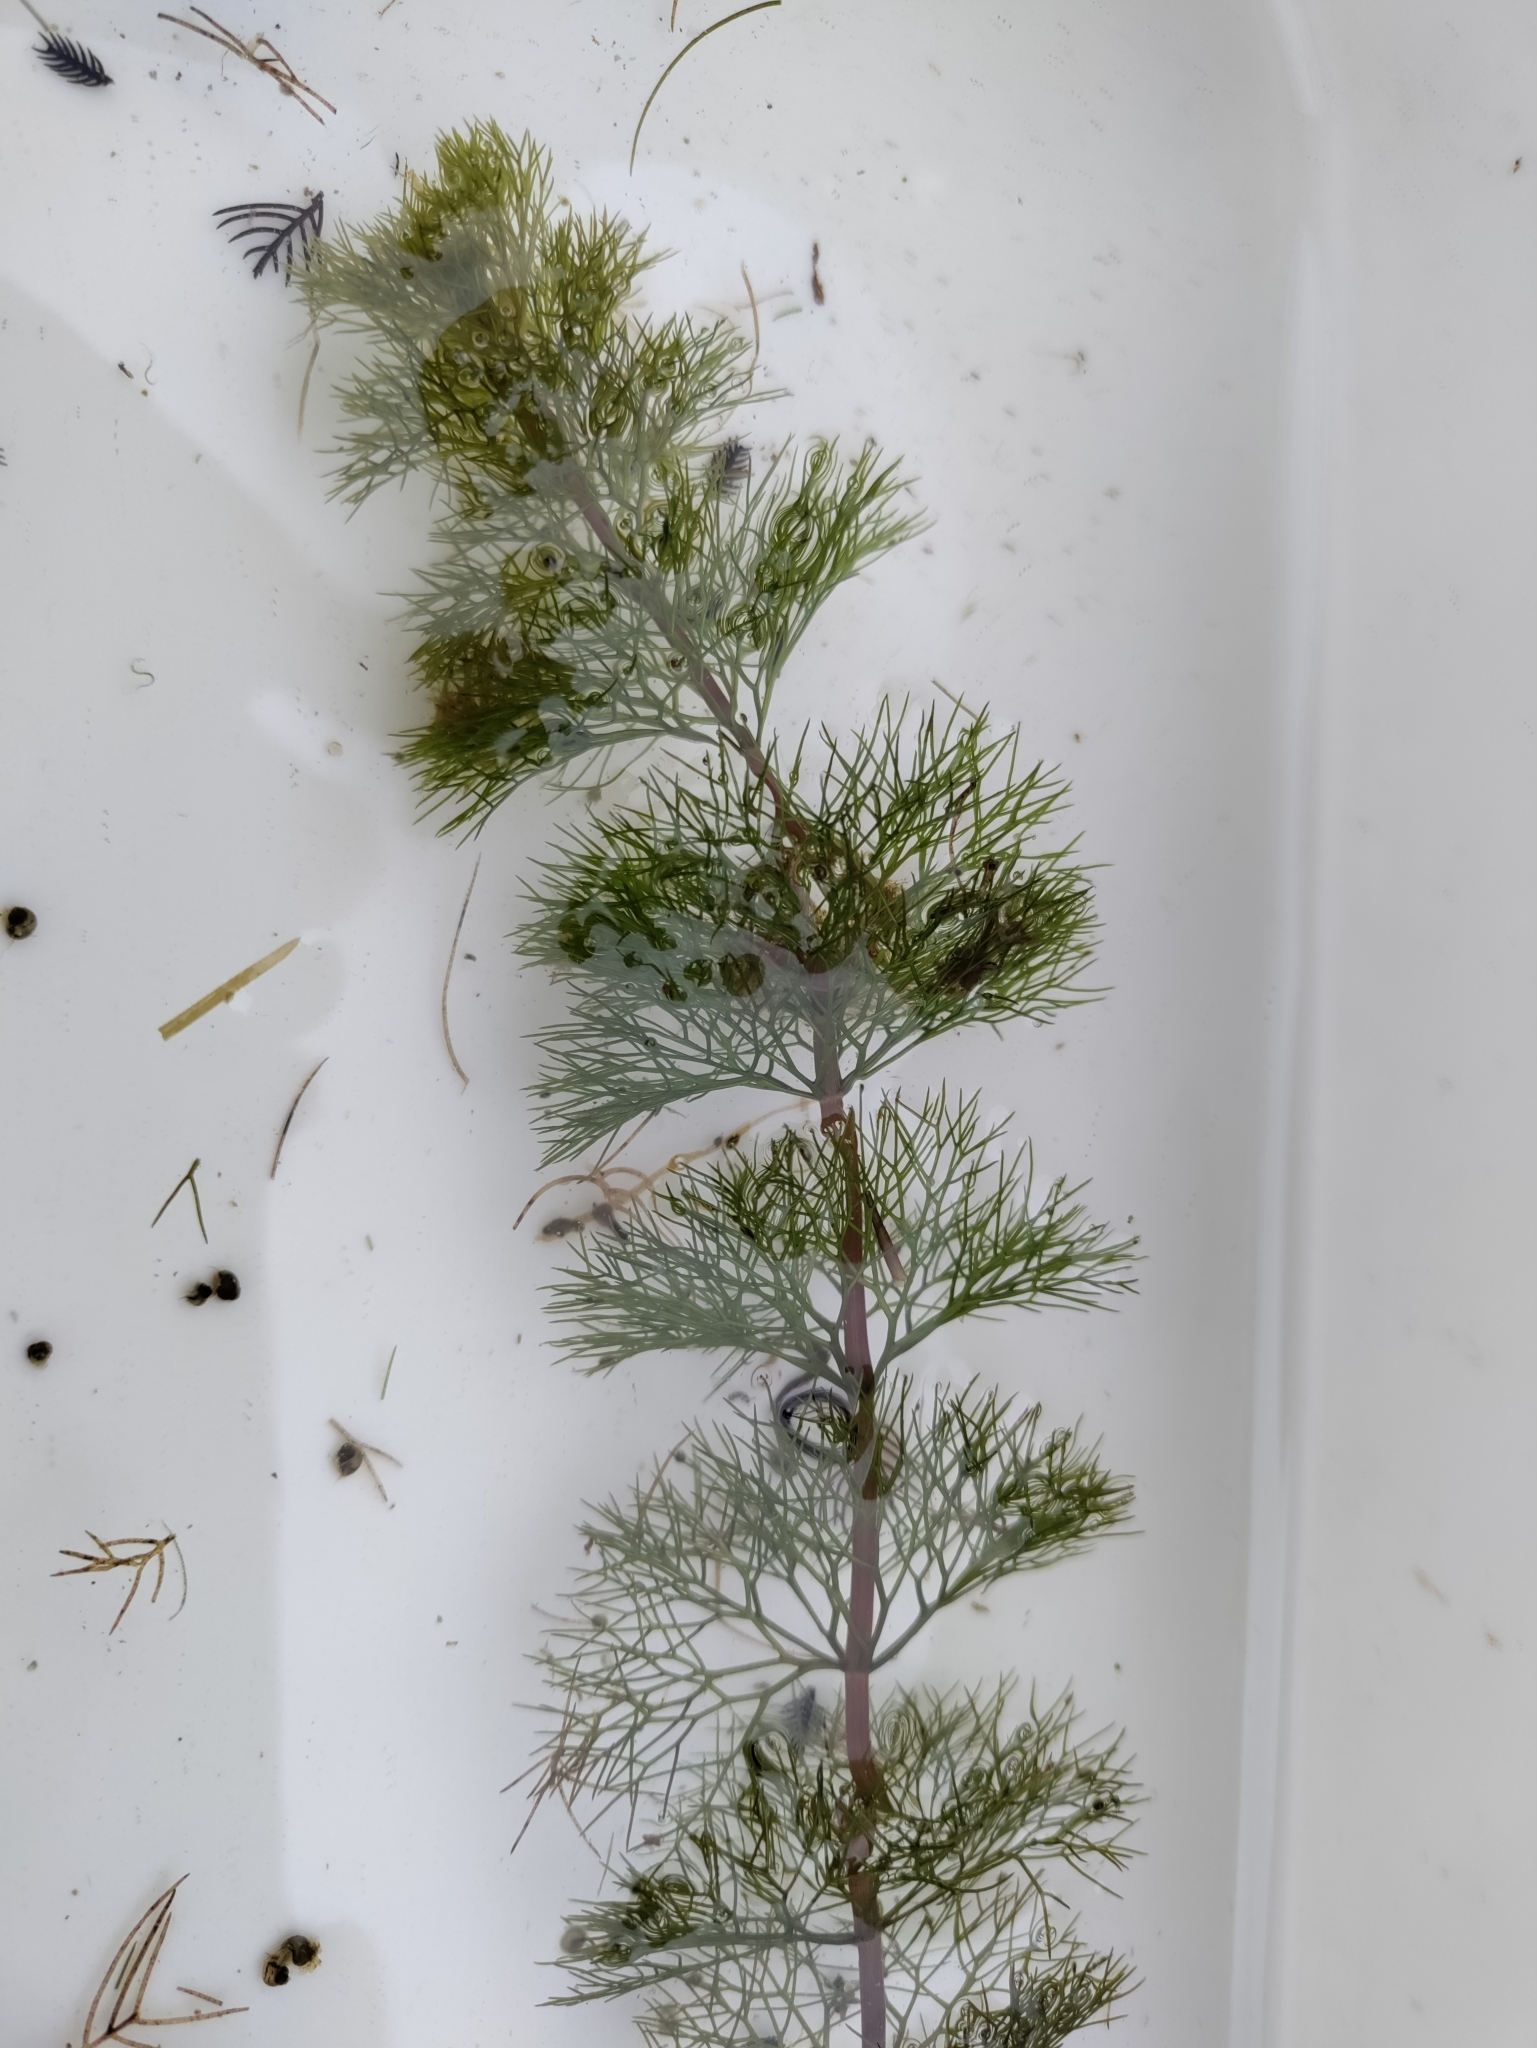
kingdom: Plantae
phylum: Tracheophyta
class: Magnoliopsida
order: Asterales
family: Asteraceae
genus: Bidens
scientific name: Bidens beckii
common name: Beck's beggarticks
